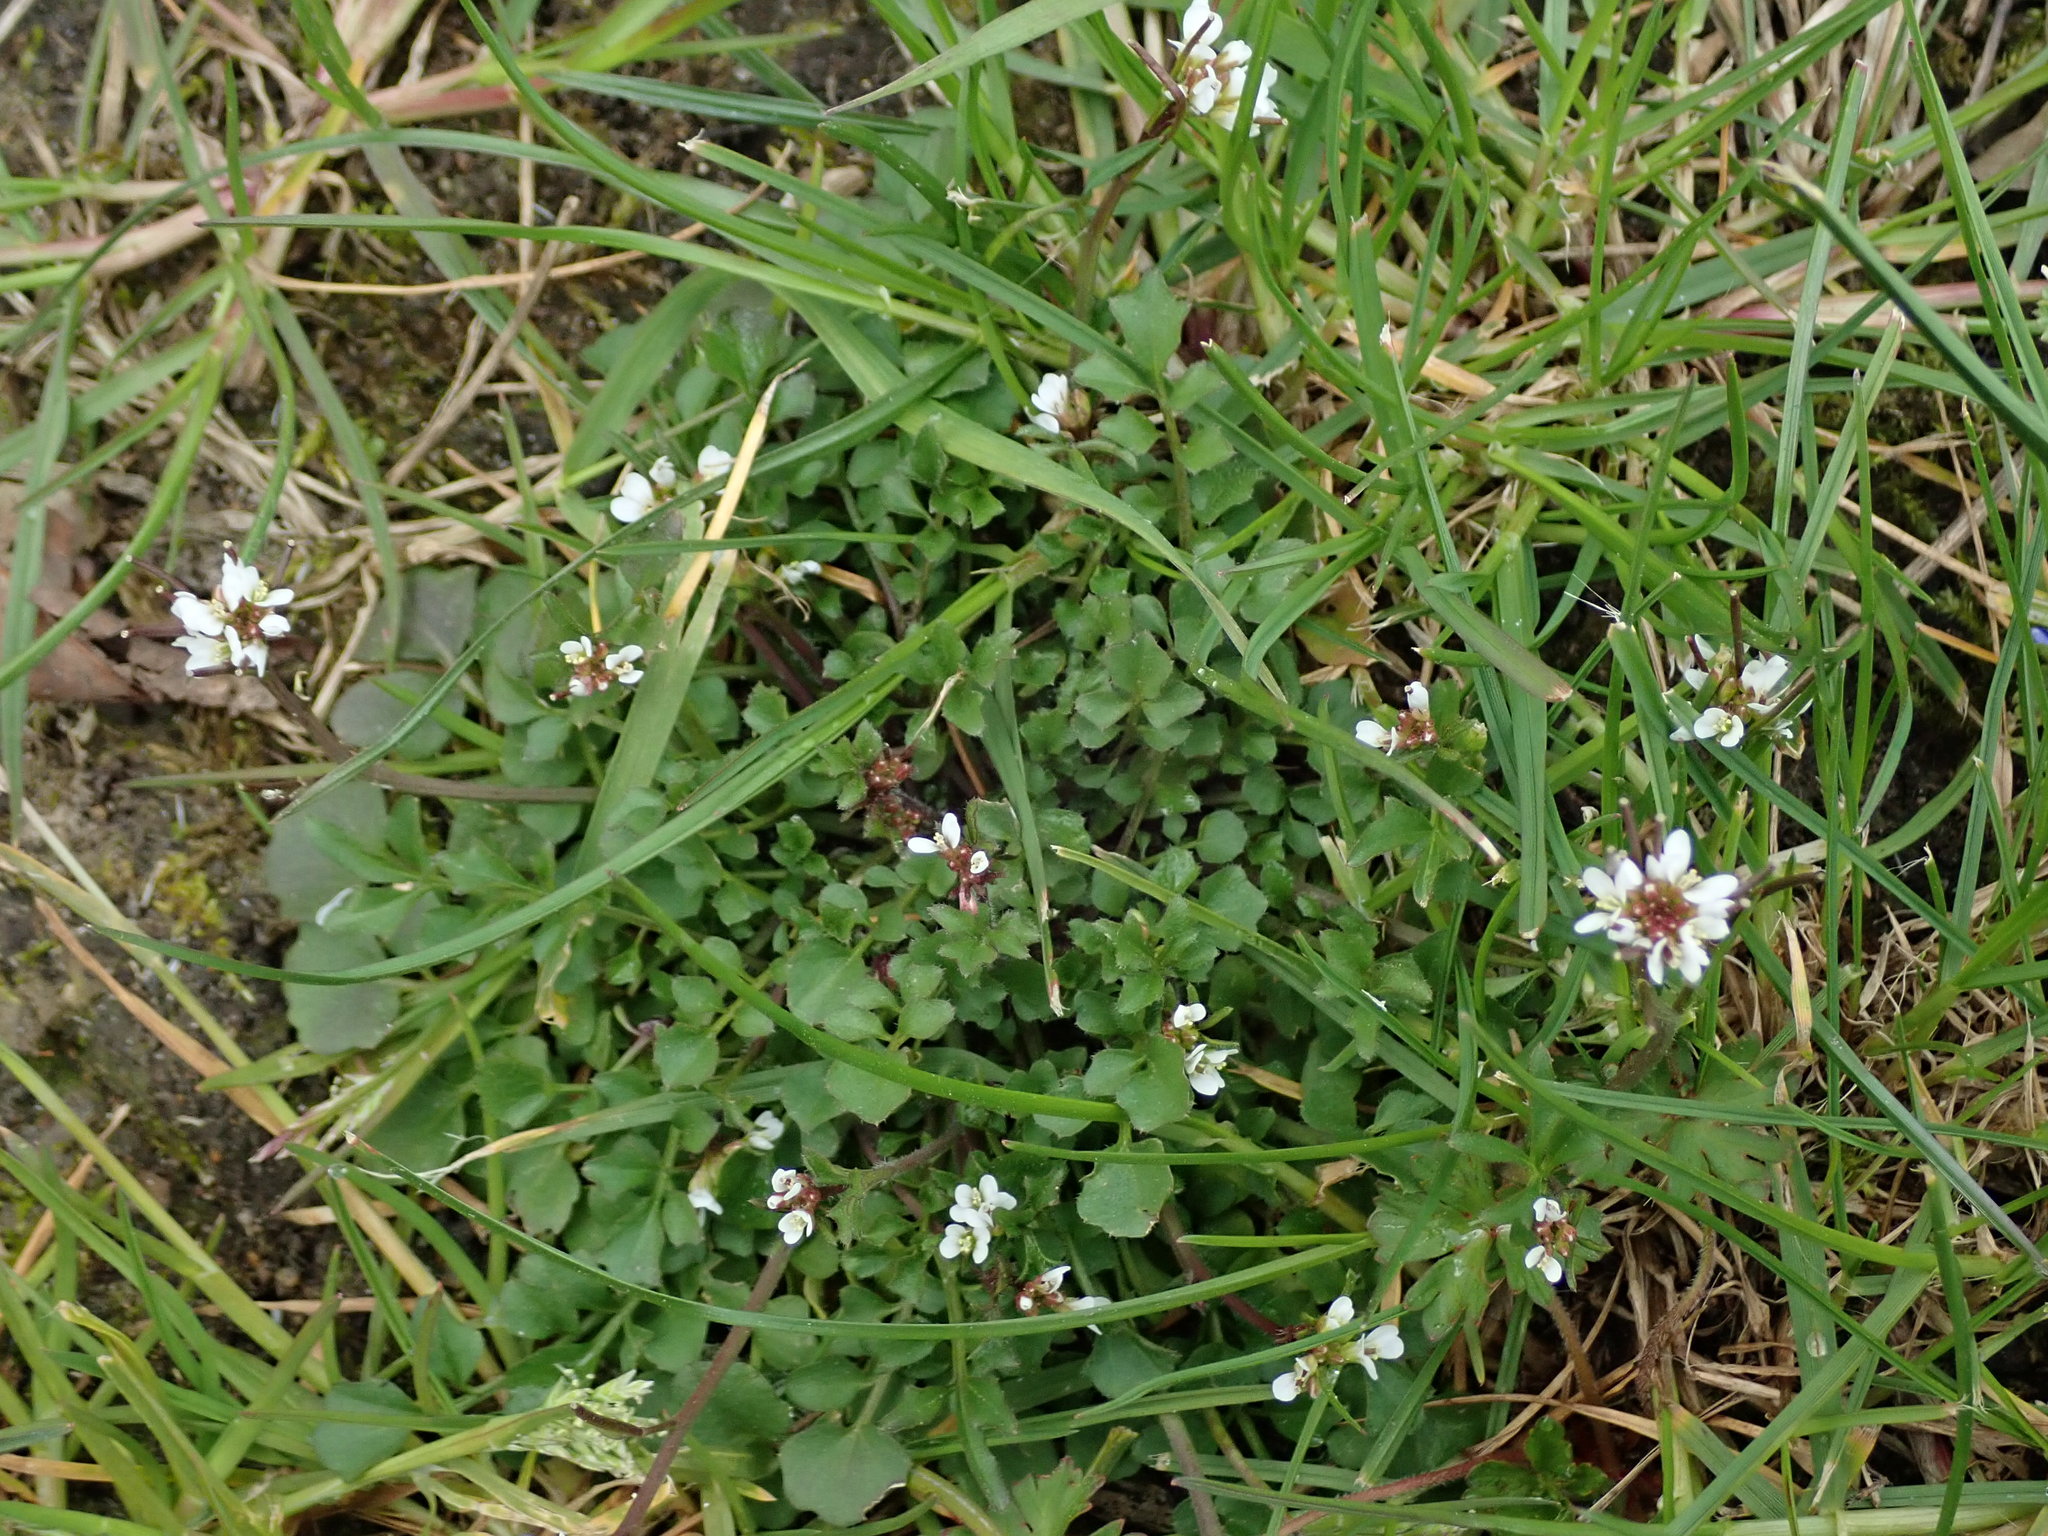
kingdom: Plantae
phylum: Tracheophyta
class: Magnoliopsida
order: Brassicales
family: Brassicaceae
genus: Cardamine
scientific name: Cardamine hirsuta
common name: Hairy bittercress
